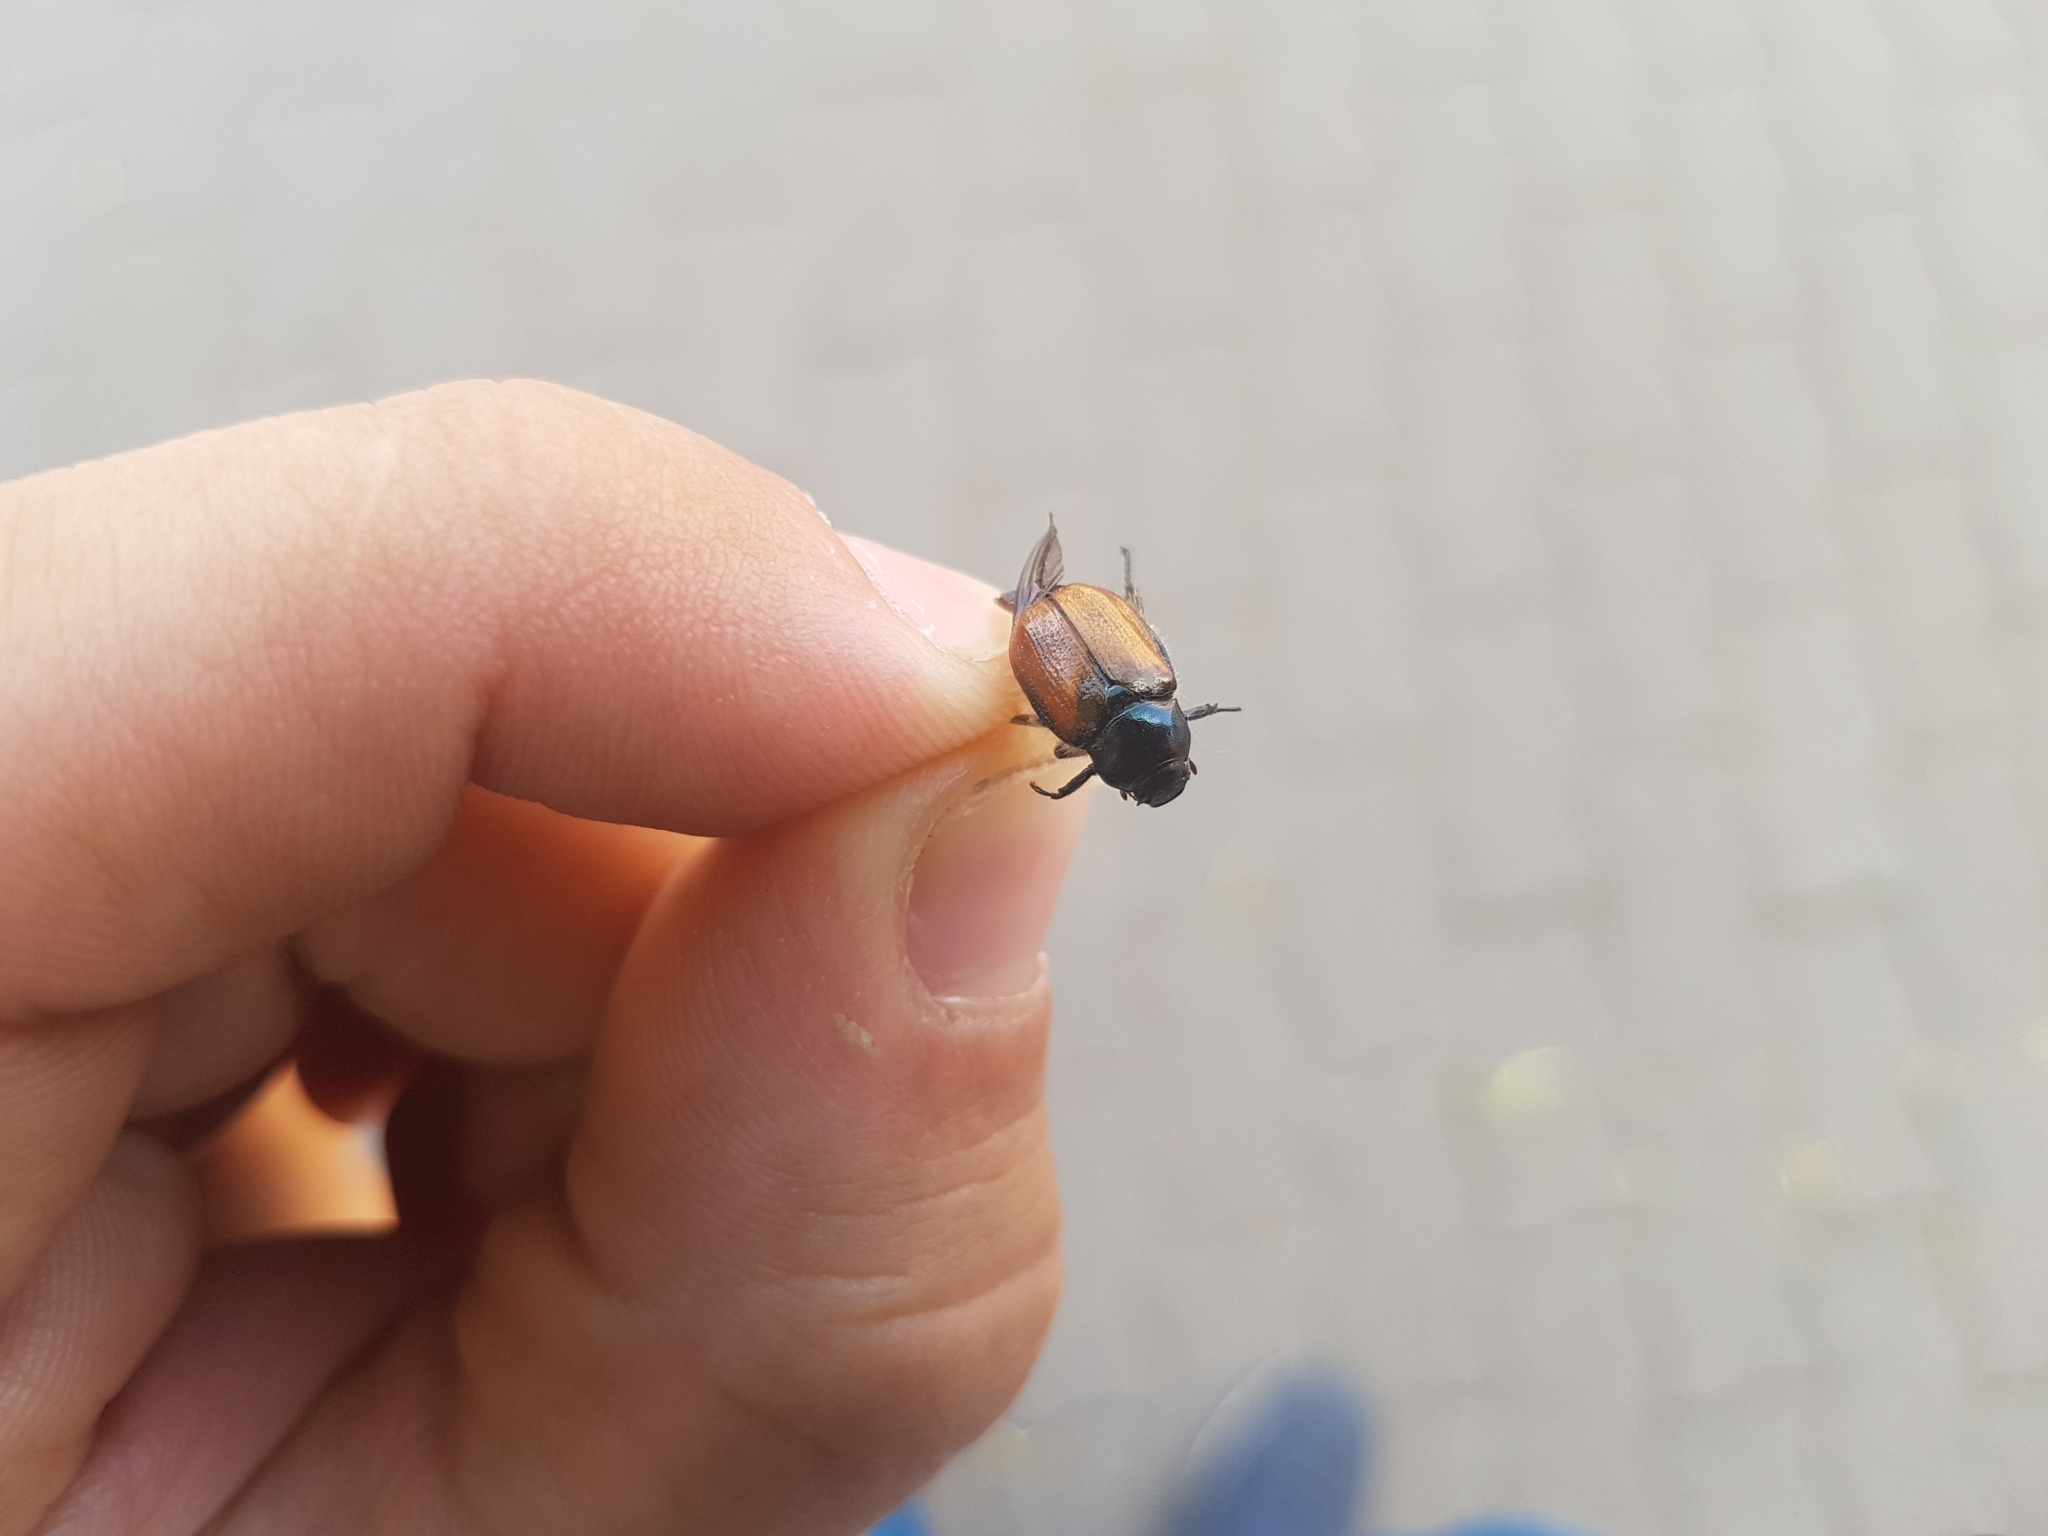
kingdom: Animalia
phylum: Arthropoda
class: Insecta
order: Coleoptera
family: Scarabaeidae
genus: Phyllopertha
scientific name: Phyllopertha horticola
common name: Garden chafer
